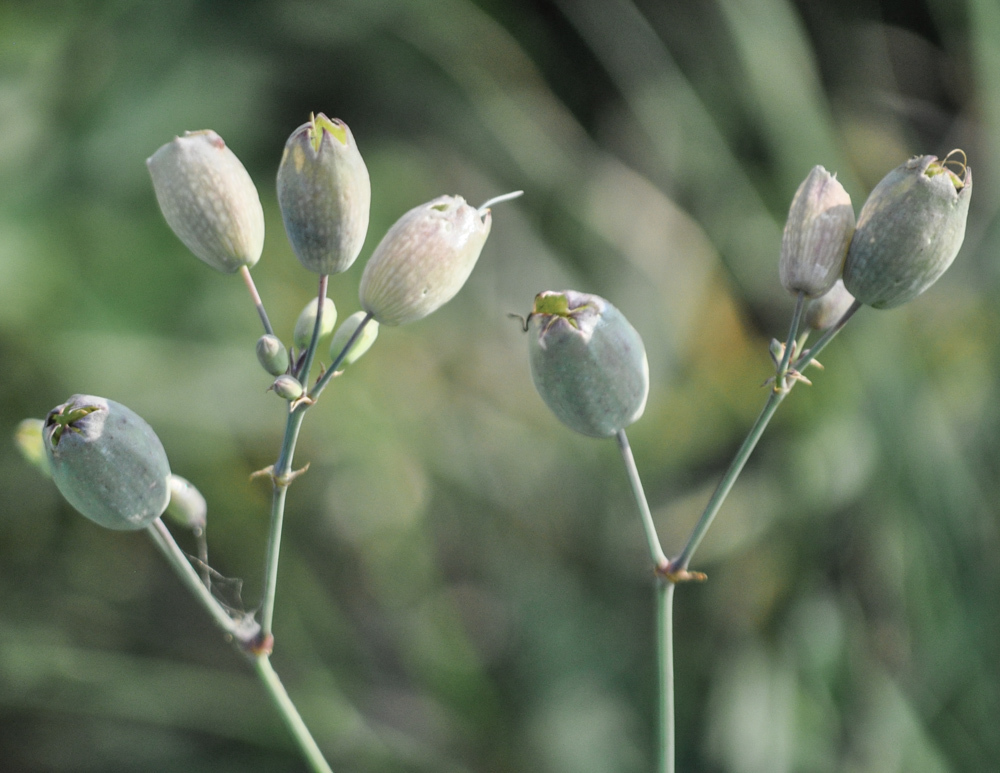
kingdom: Plantae
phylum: Tracheophyta
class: Magnoliopsida
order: Caryophyllales
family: Caryophyllaceae
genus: Silene
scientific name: Silene vulgaris
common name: Bladder campion
